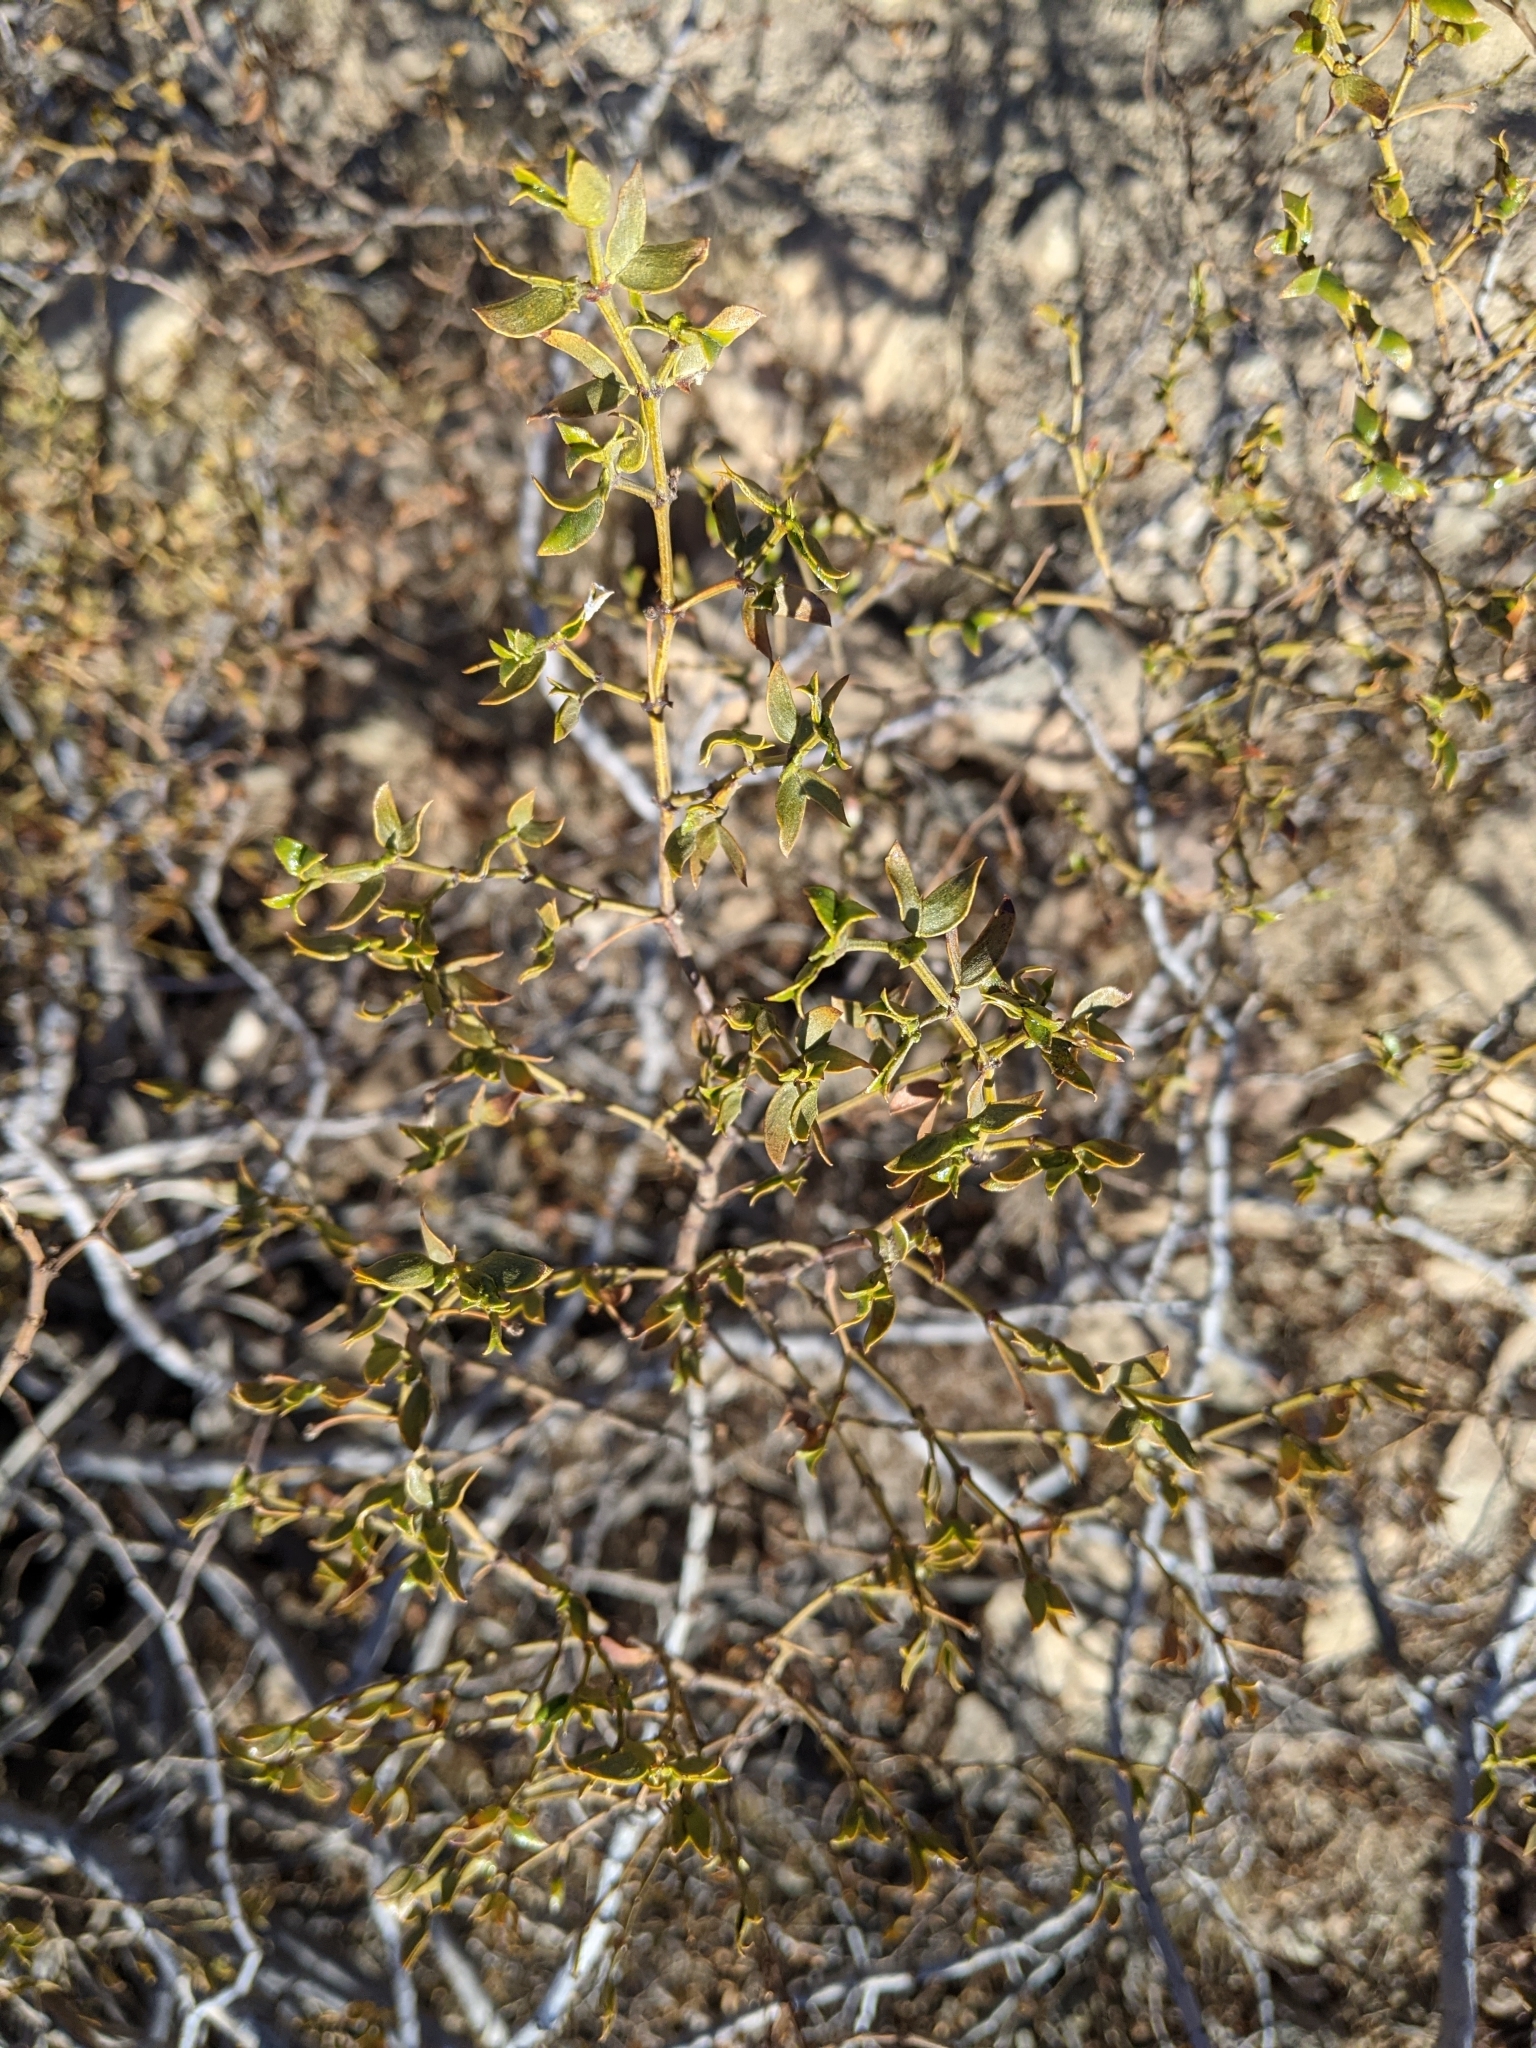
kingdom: Plantae
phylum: Tracheophyta
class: Magnoliopsida
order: Zygophyllales
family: Zygophyllaceae
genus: Larrea
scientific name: Larrea tridentata
